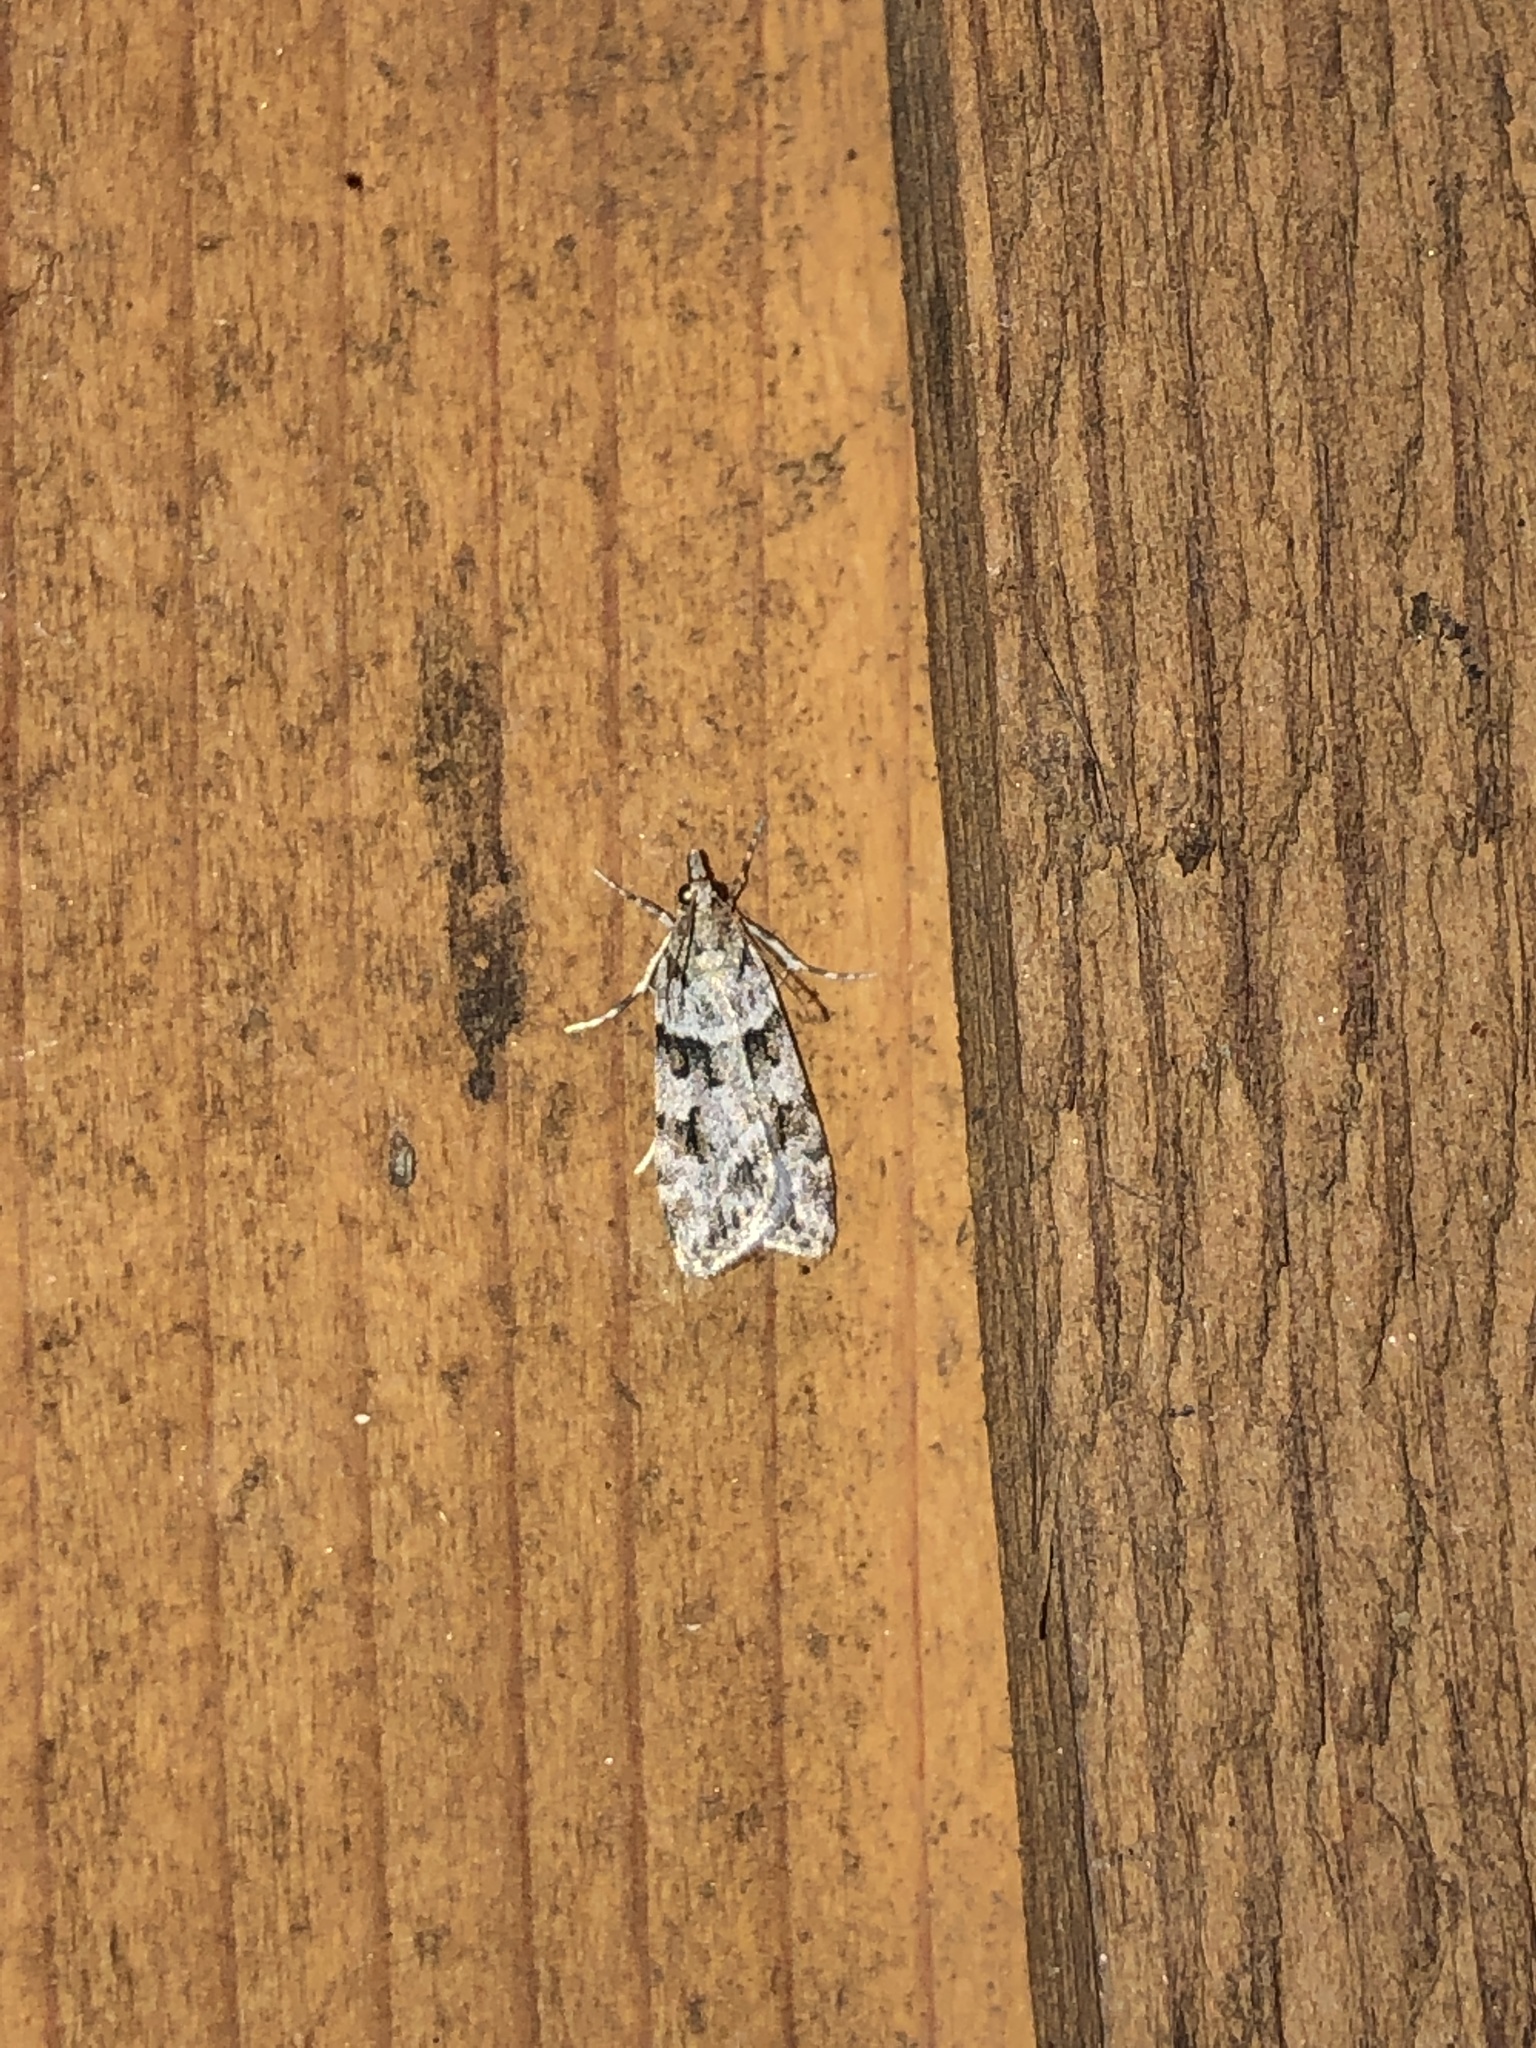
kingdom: Animalia
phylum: Arthropoda
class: Insecta
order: Lepidoptera
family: Crambidae
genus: Scoparia
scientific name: Scoparia biplagialis
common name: Double-striped scoparia moth
